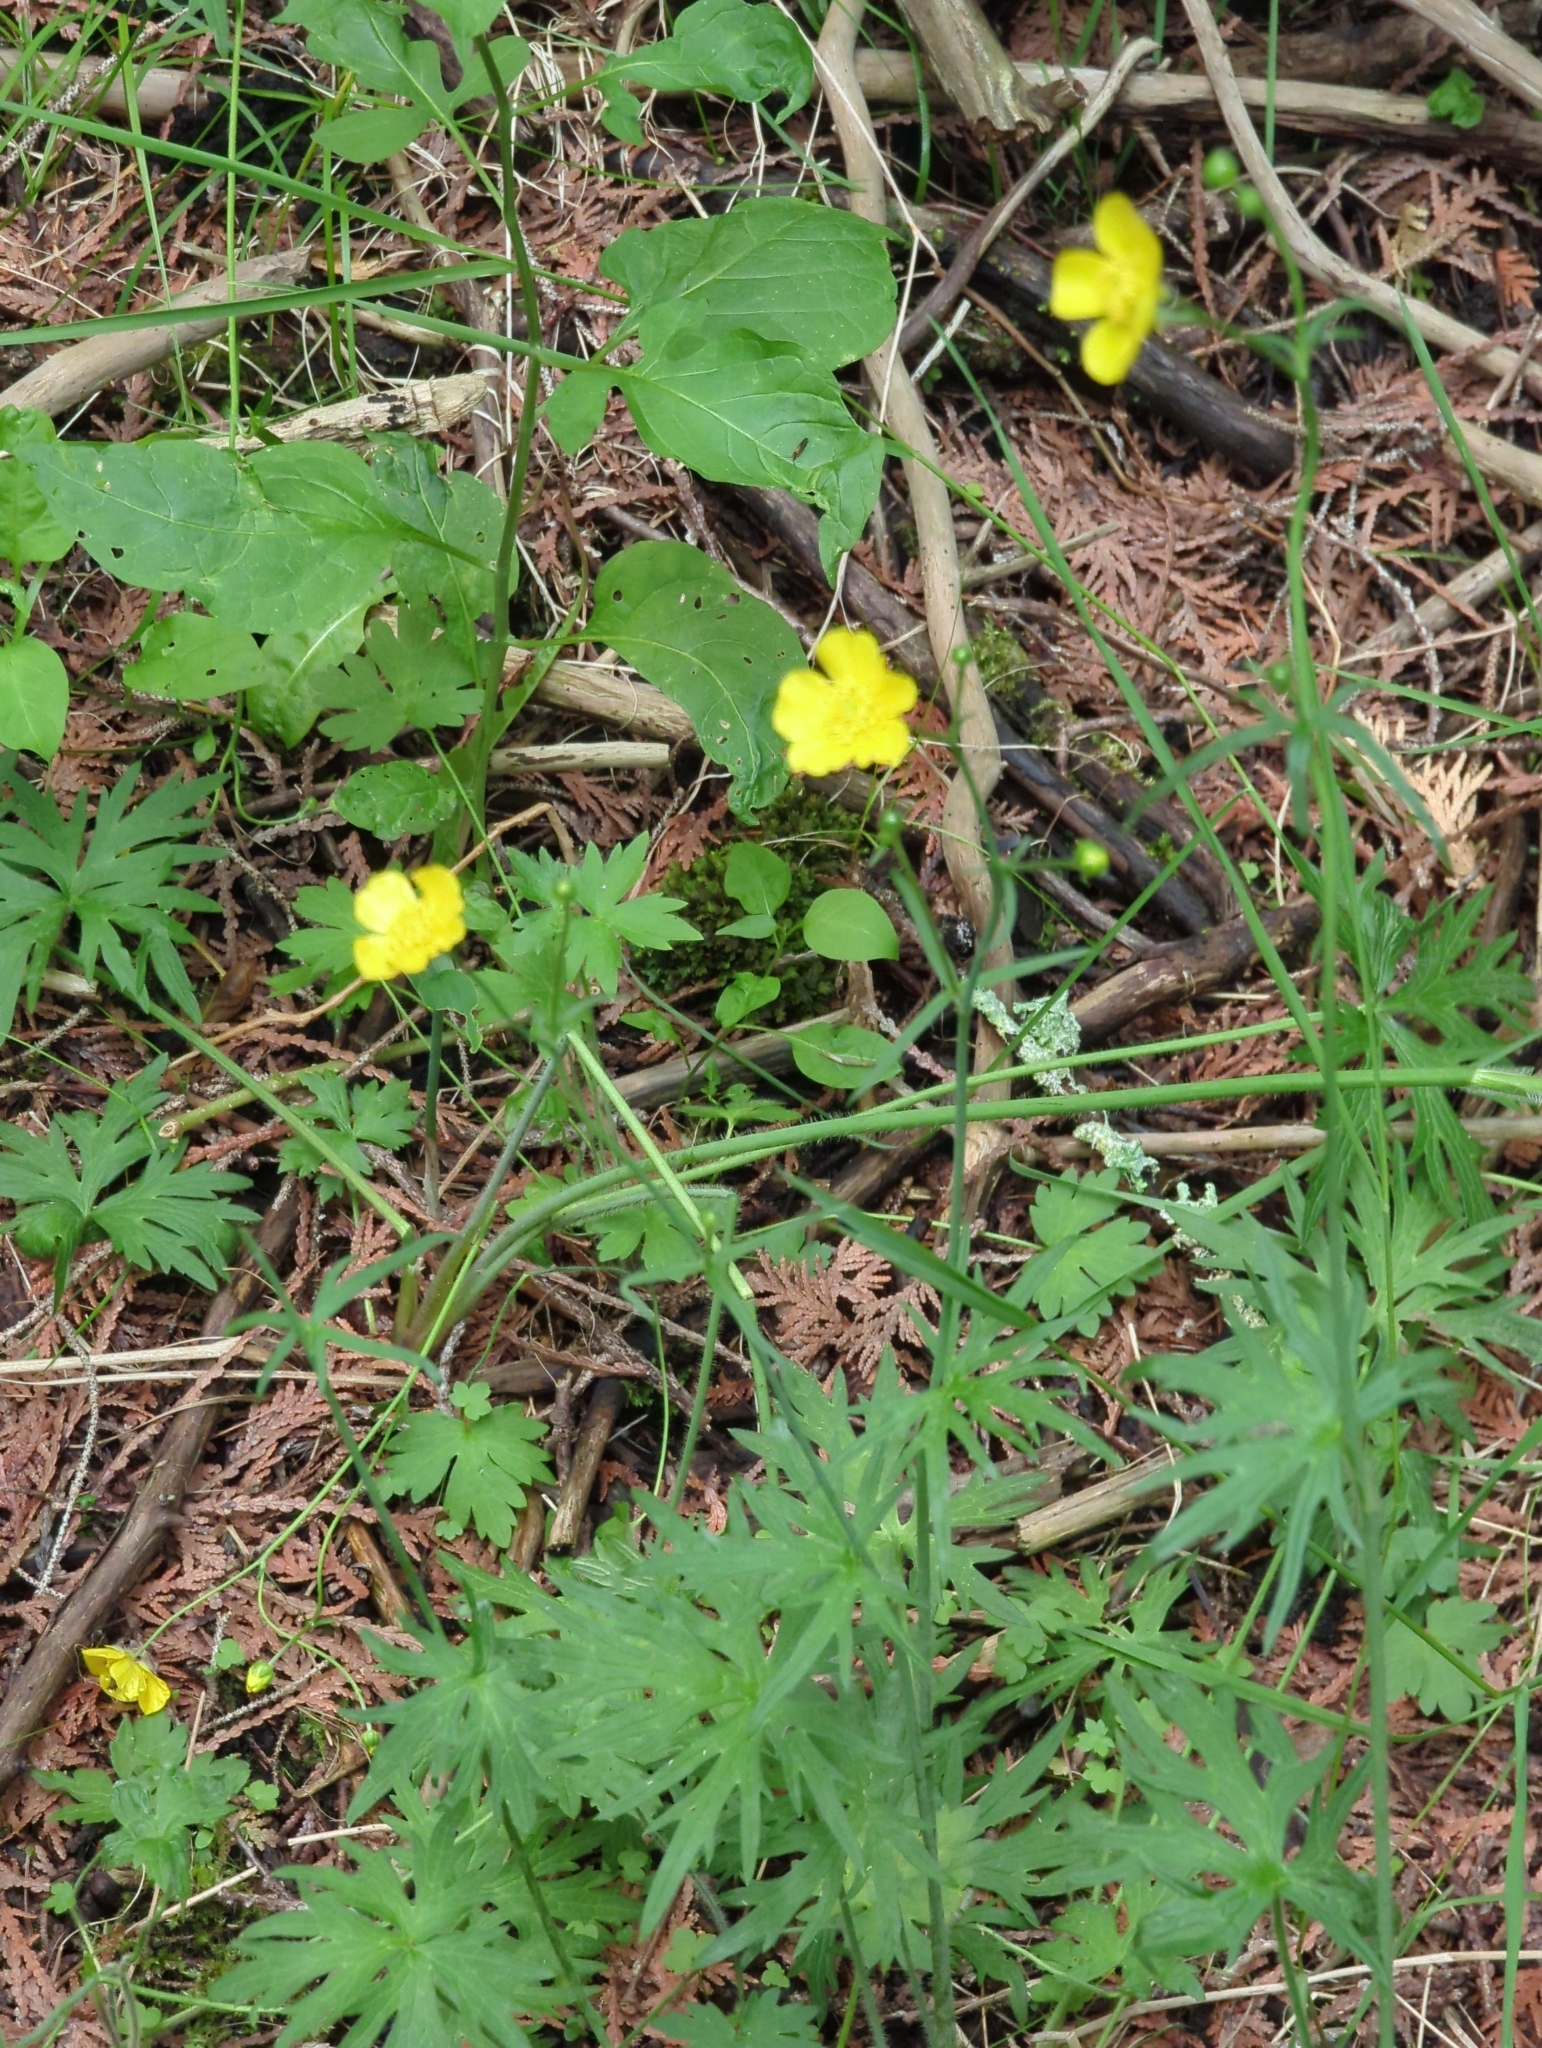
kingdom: Plantae
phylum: Tracheophyta
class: Magnoliopsida
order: Ranunculales
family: Ranunculaceae
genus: Ranunculus
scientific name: Ranunculus acris
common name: Meadow buttercup
